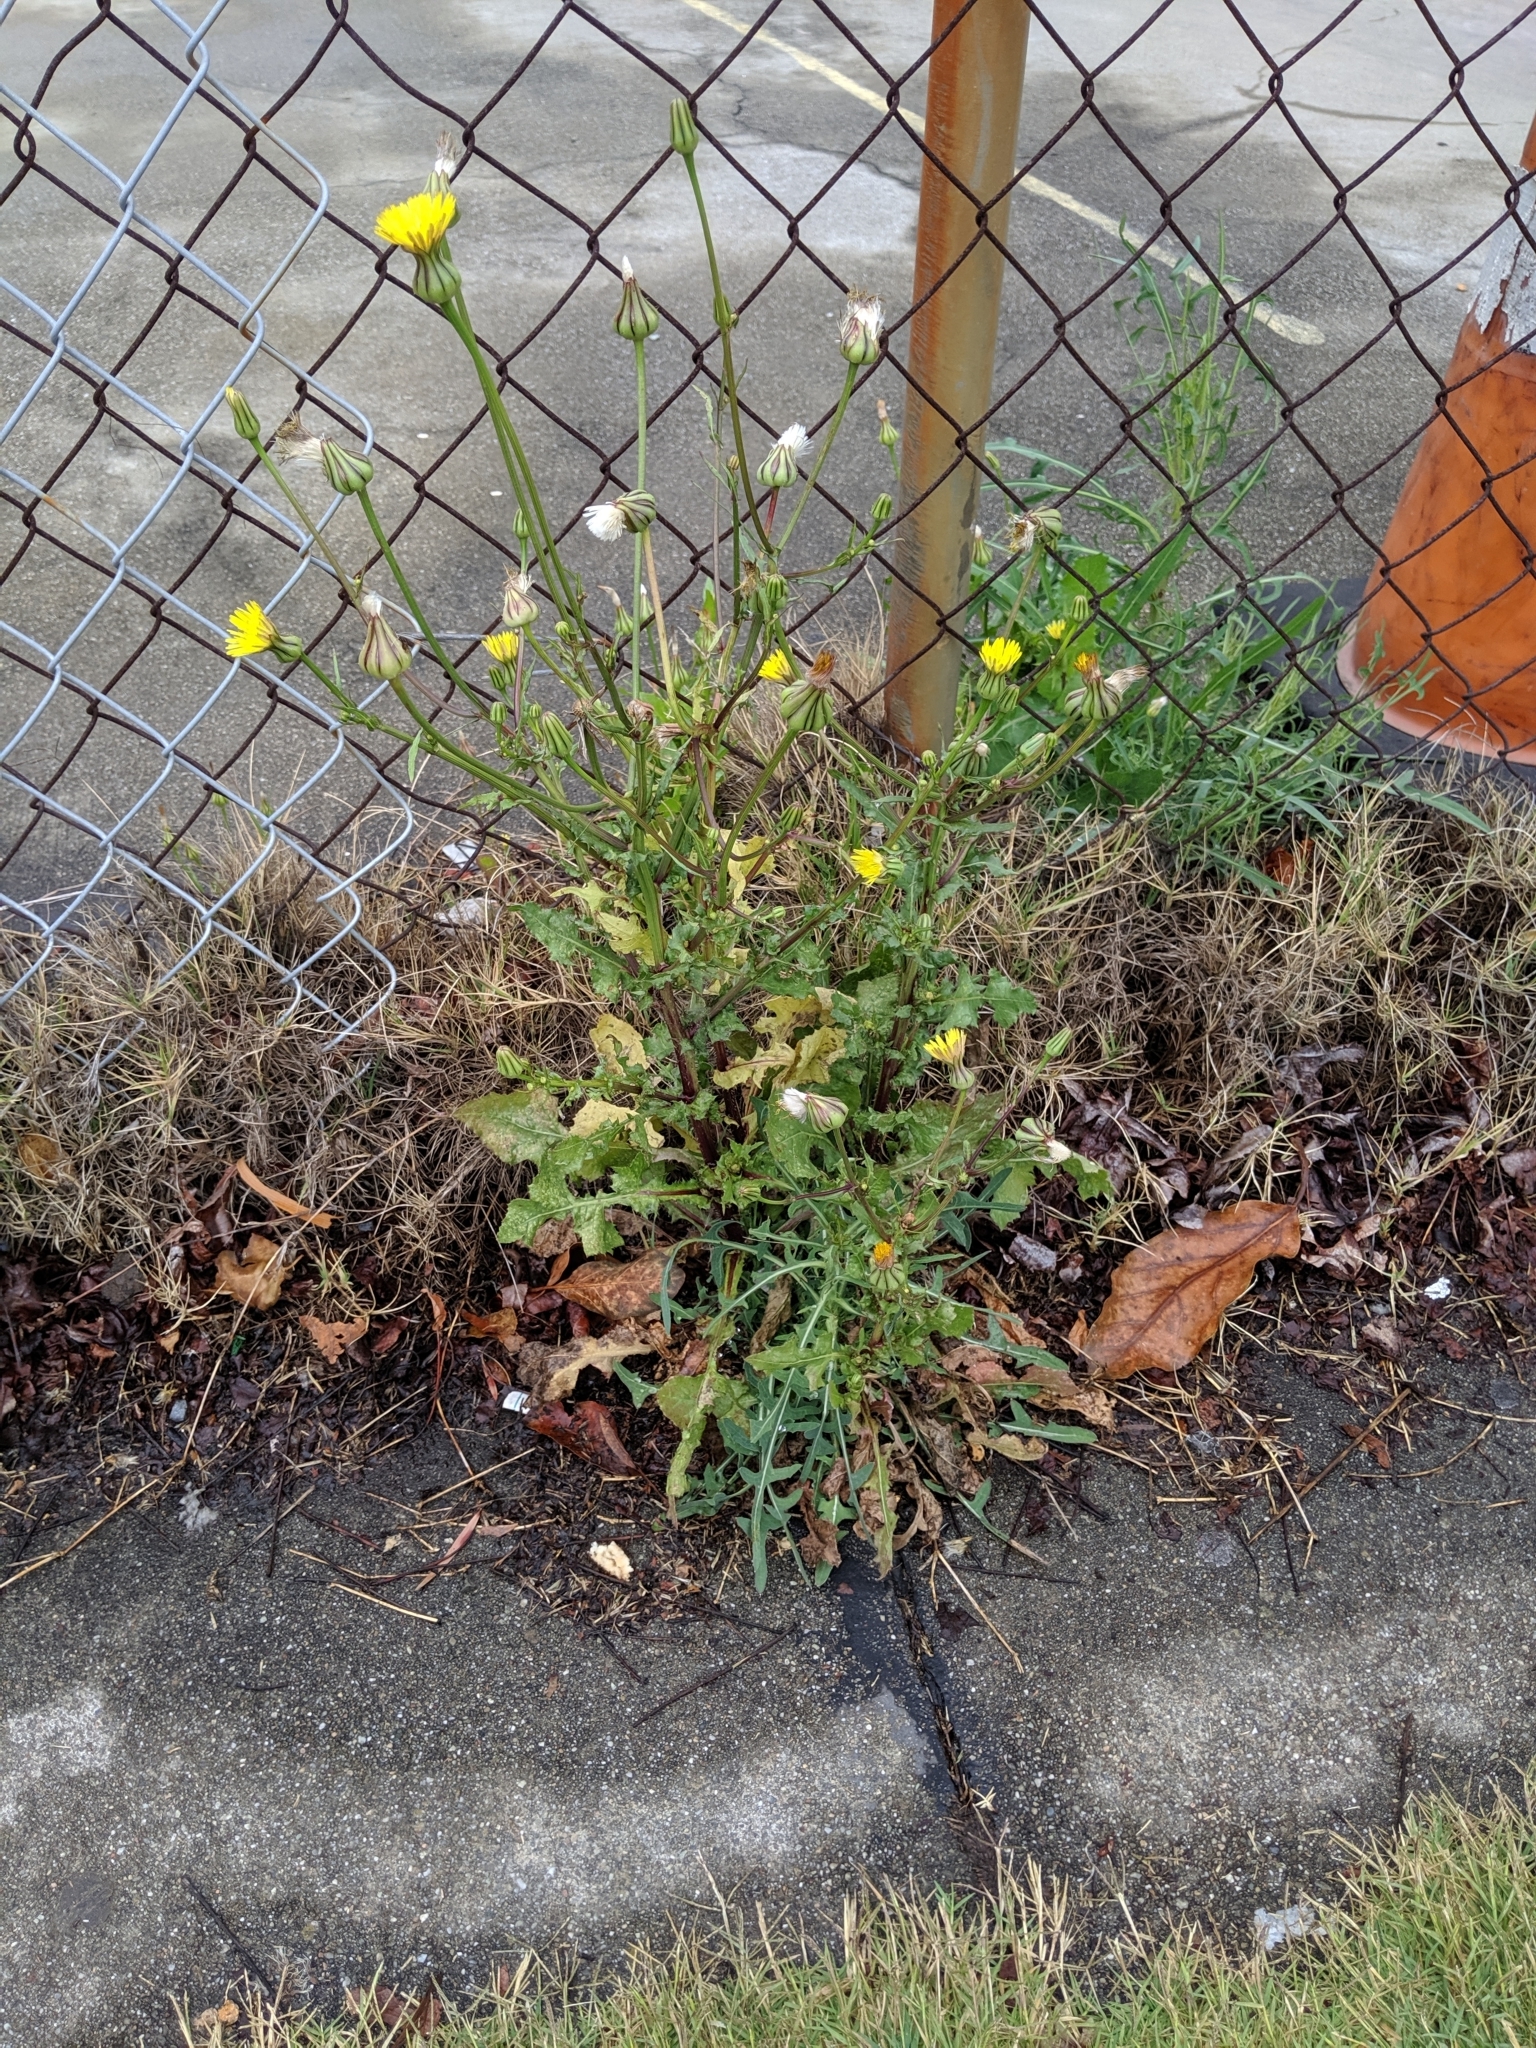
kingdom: Plantae
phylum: Tracheophyta
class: Magnoliopsida
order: Asterales
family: Asteraceae
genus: Urospermum
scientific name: Urospermum picroides
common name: False hawkbit
